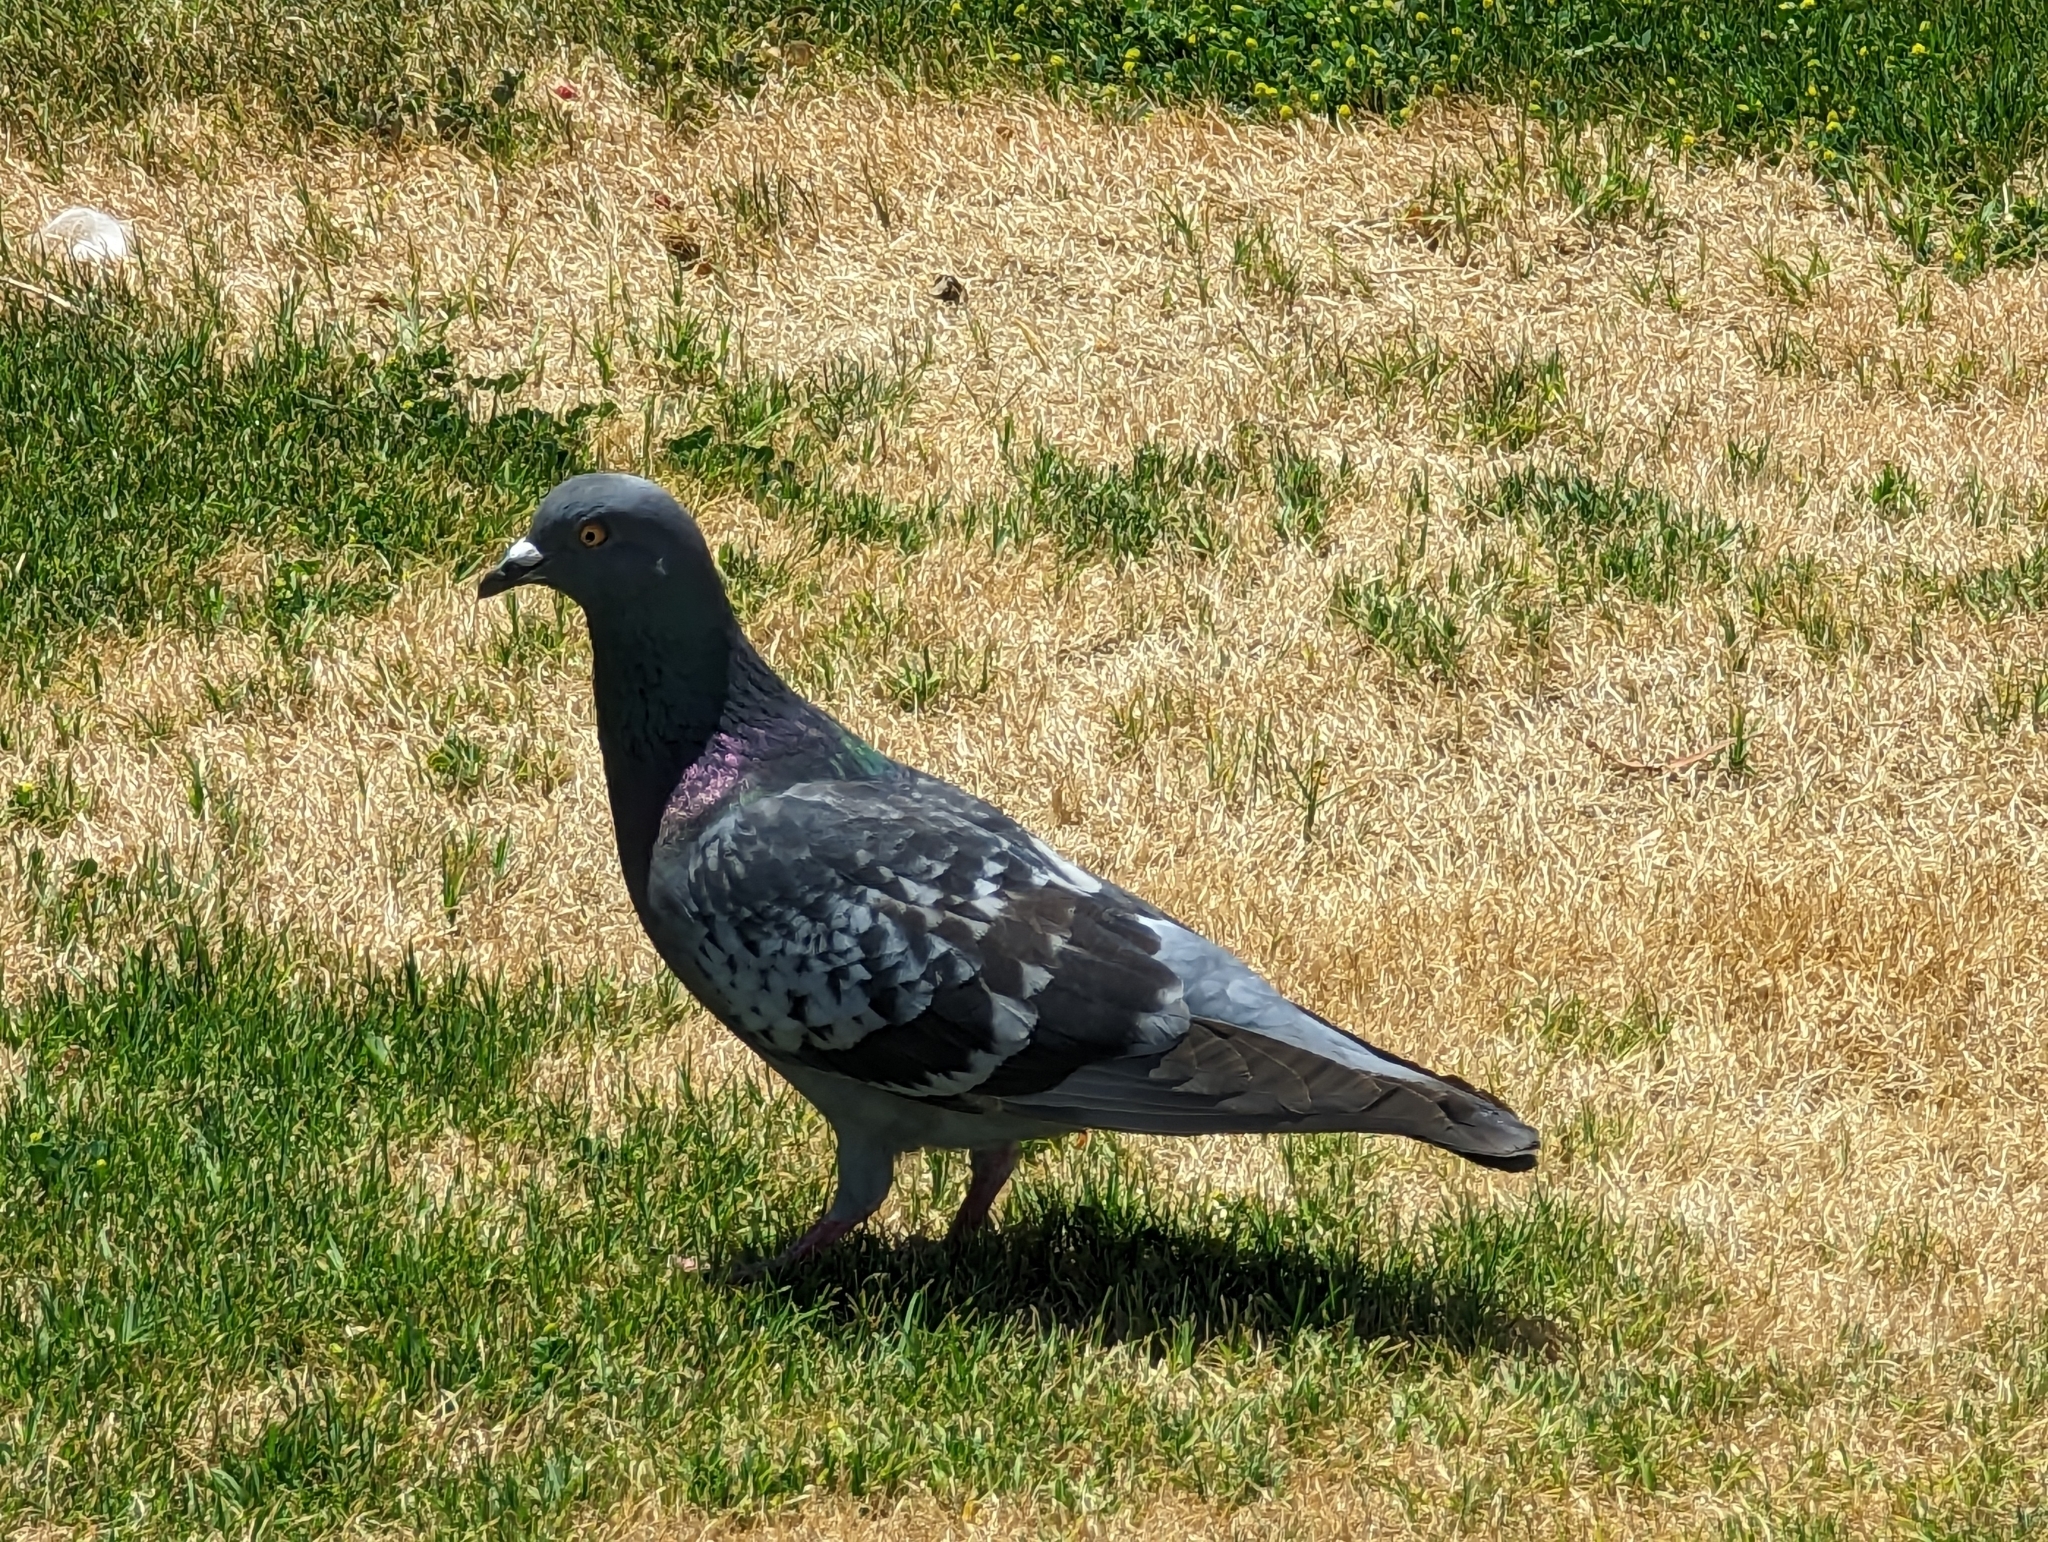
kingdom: Animalia
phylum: Chordata
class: Aves
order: Columbiformes
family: Columbidae
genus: Columba
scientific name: Columba livia
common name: Rock pigeon
